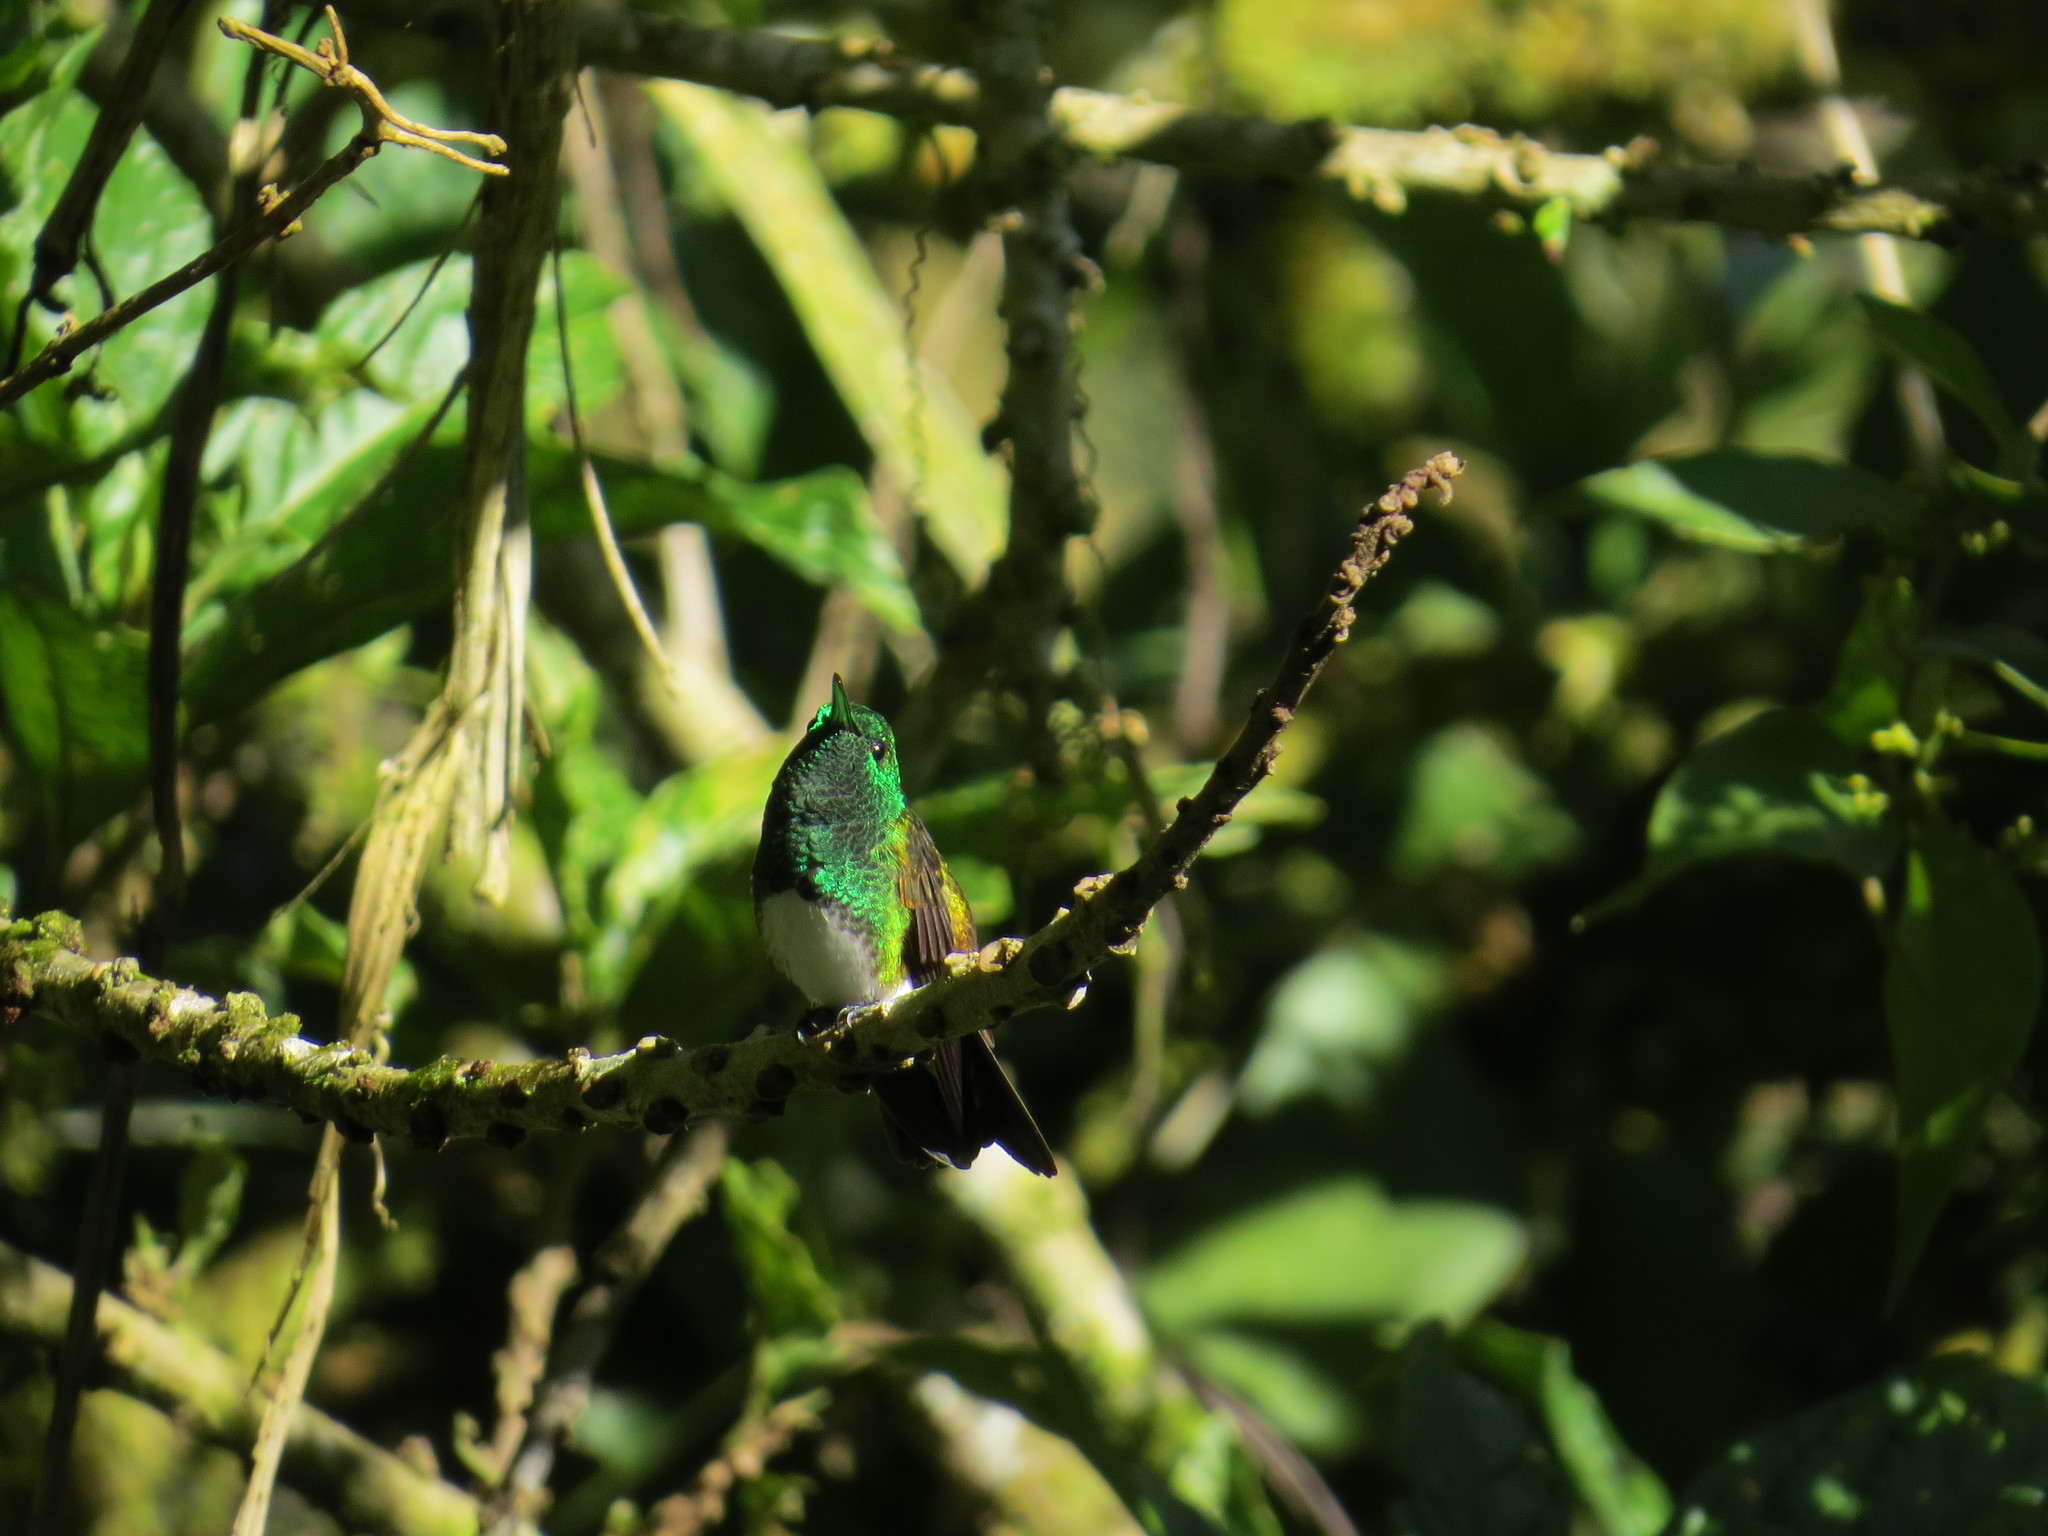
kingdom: Animalia
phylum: Chordata
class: Aves
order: Apodiformes
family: Trochilidae
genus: Saucerottia
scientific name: Saucerottia edward
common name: Snowy-bellied hummingbird
